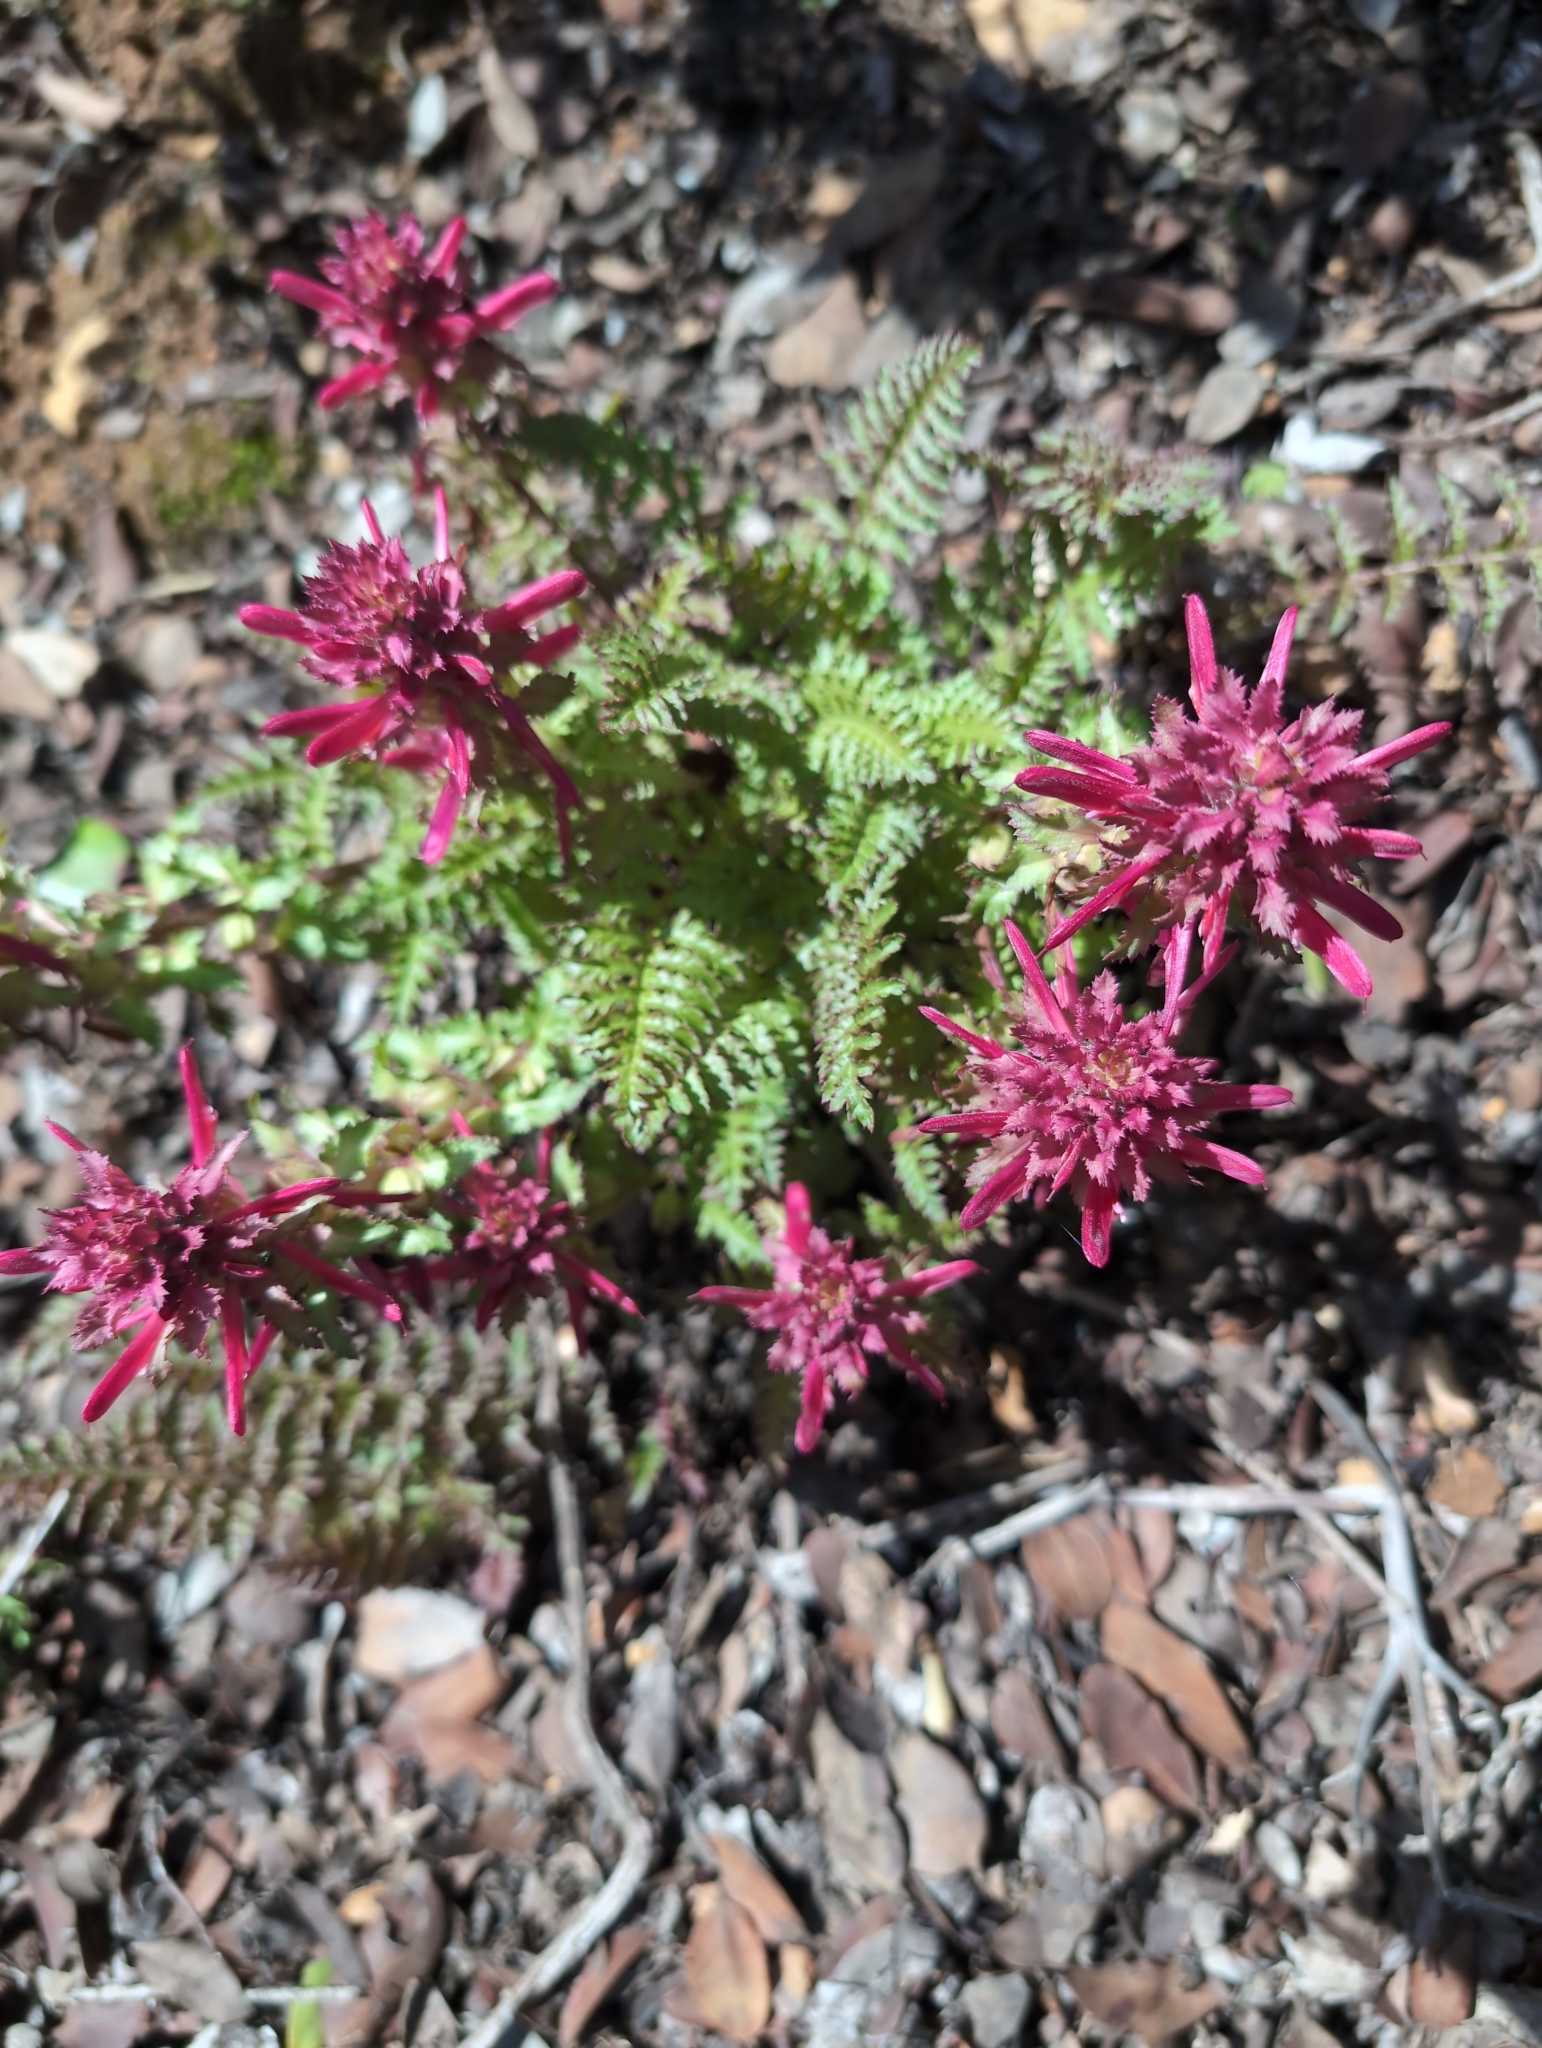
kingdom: Plantae
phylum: Tracheophyta
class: Magnoliopsida
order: Lamiales
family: Orobanchaceae
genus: Pedicularis
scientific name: Pedicularis densiflora
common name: Indian warrior
